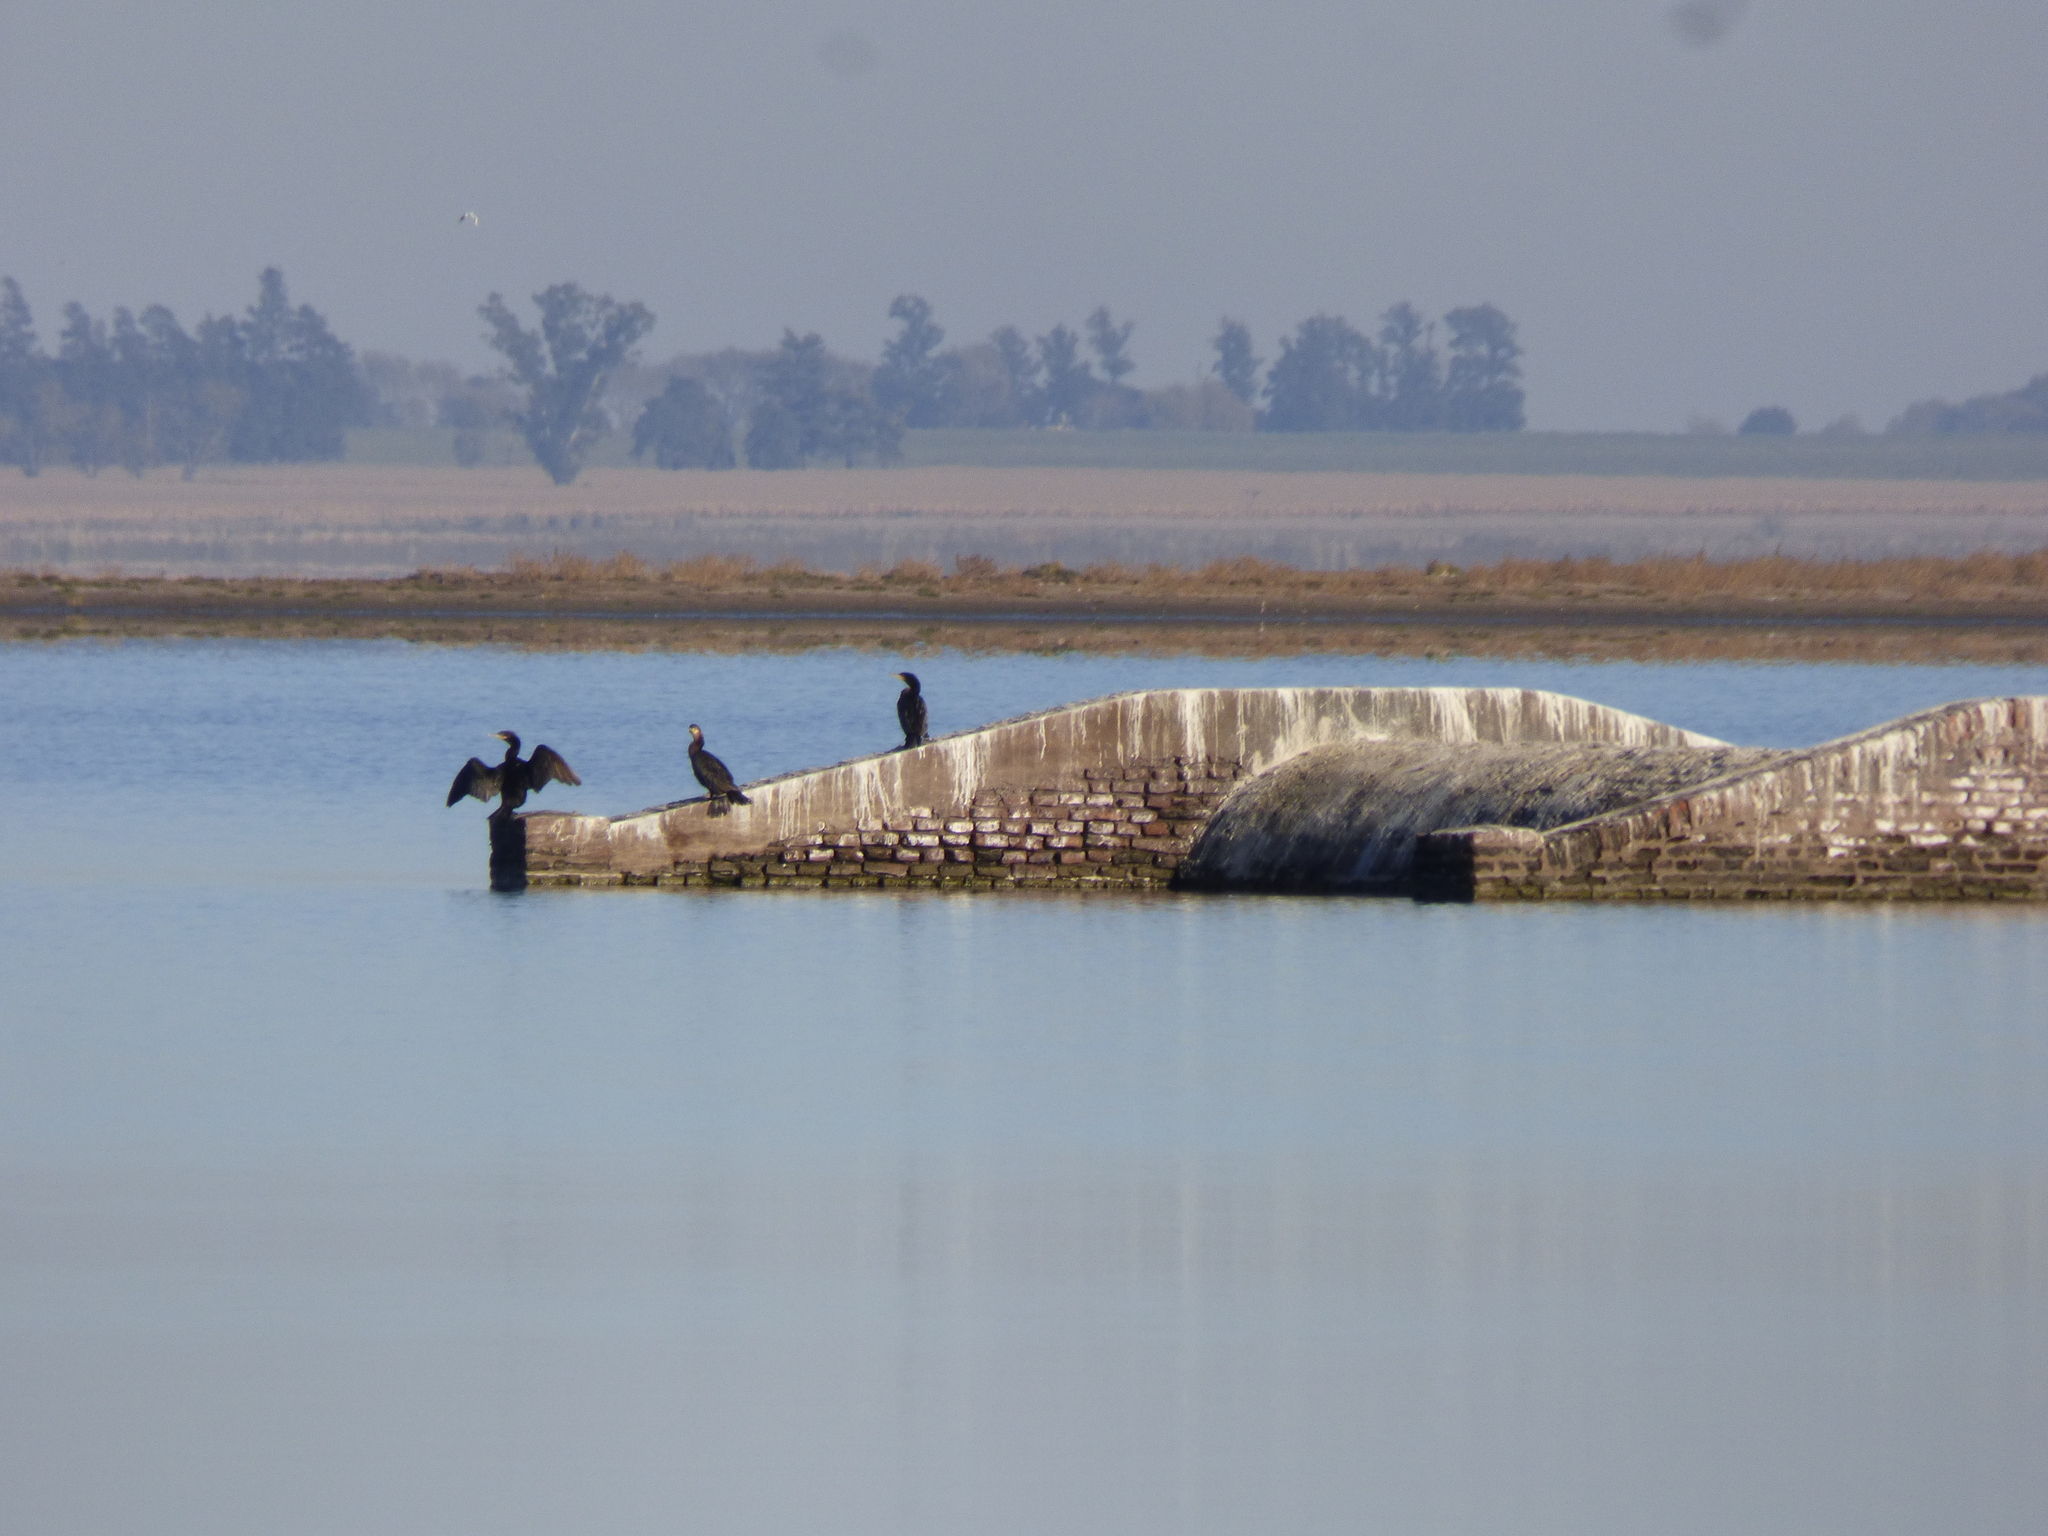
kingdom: Animalia
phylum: Chordata
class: Aves
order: Suliformes
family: Phalacrocoracidae
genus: Phalacrocorax
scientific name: Phalacrocorax brasilianus
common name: Neotropic cormorant
